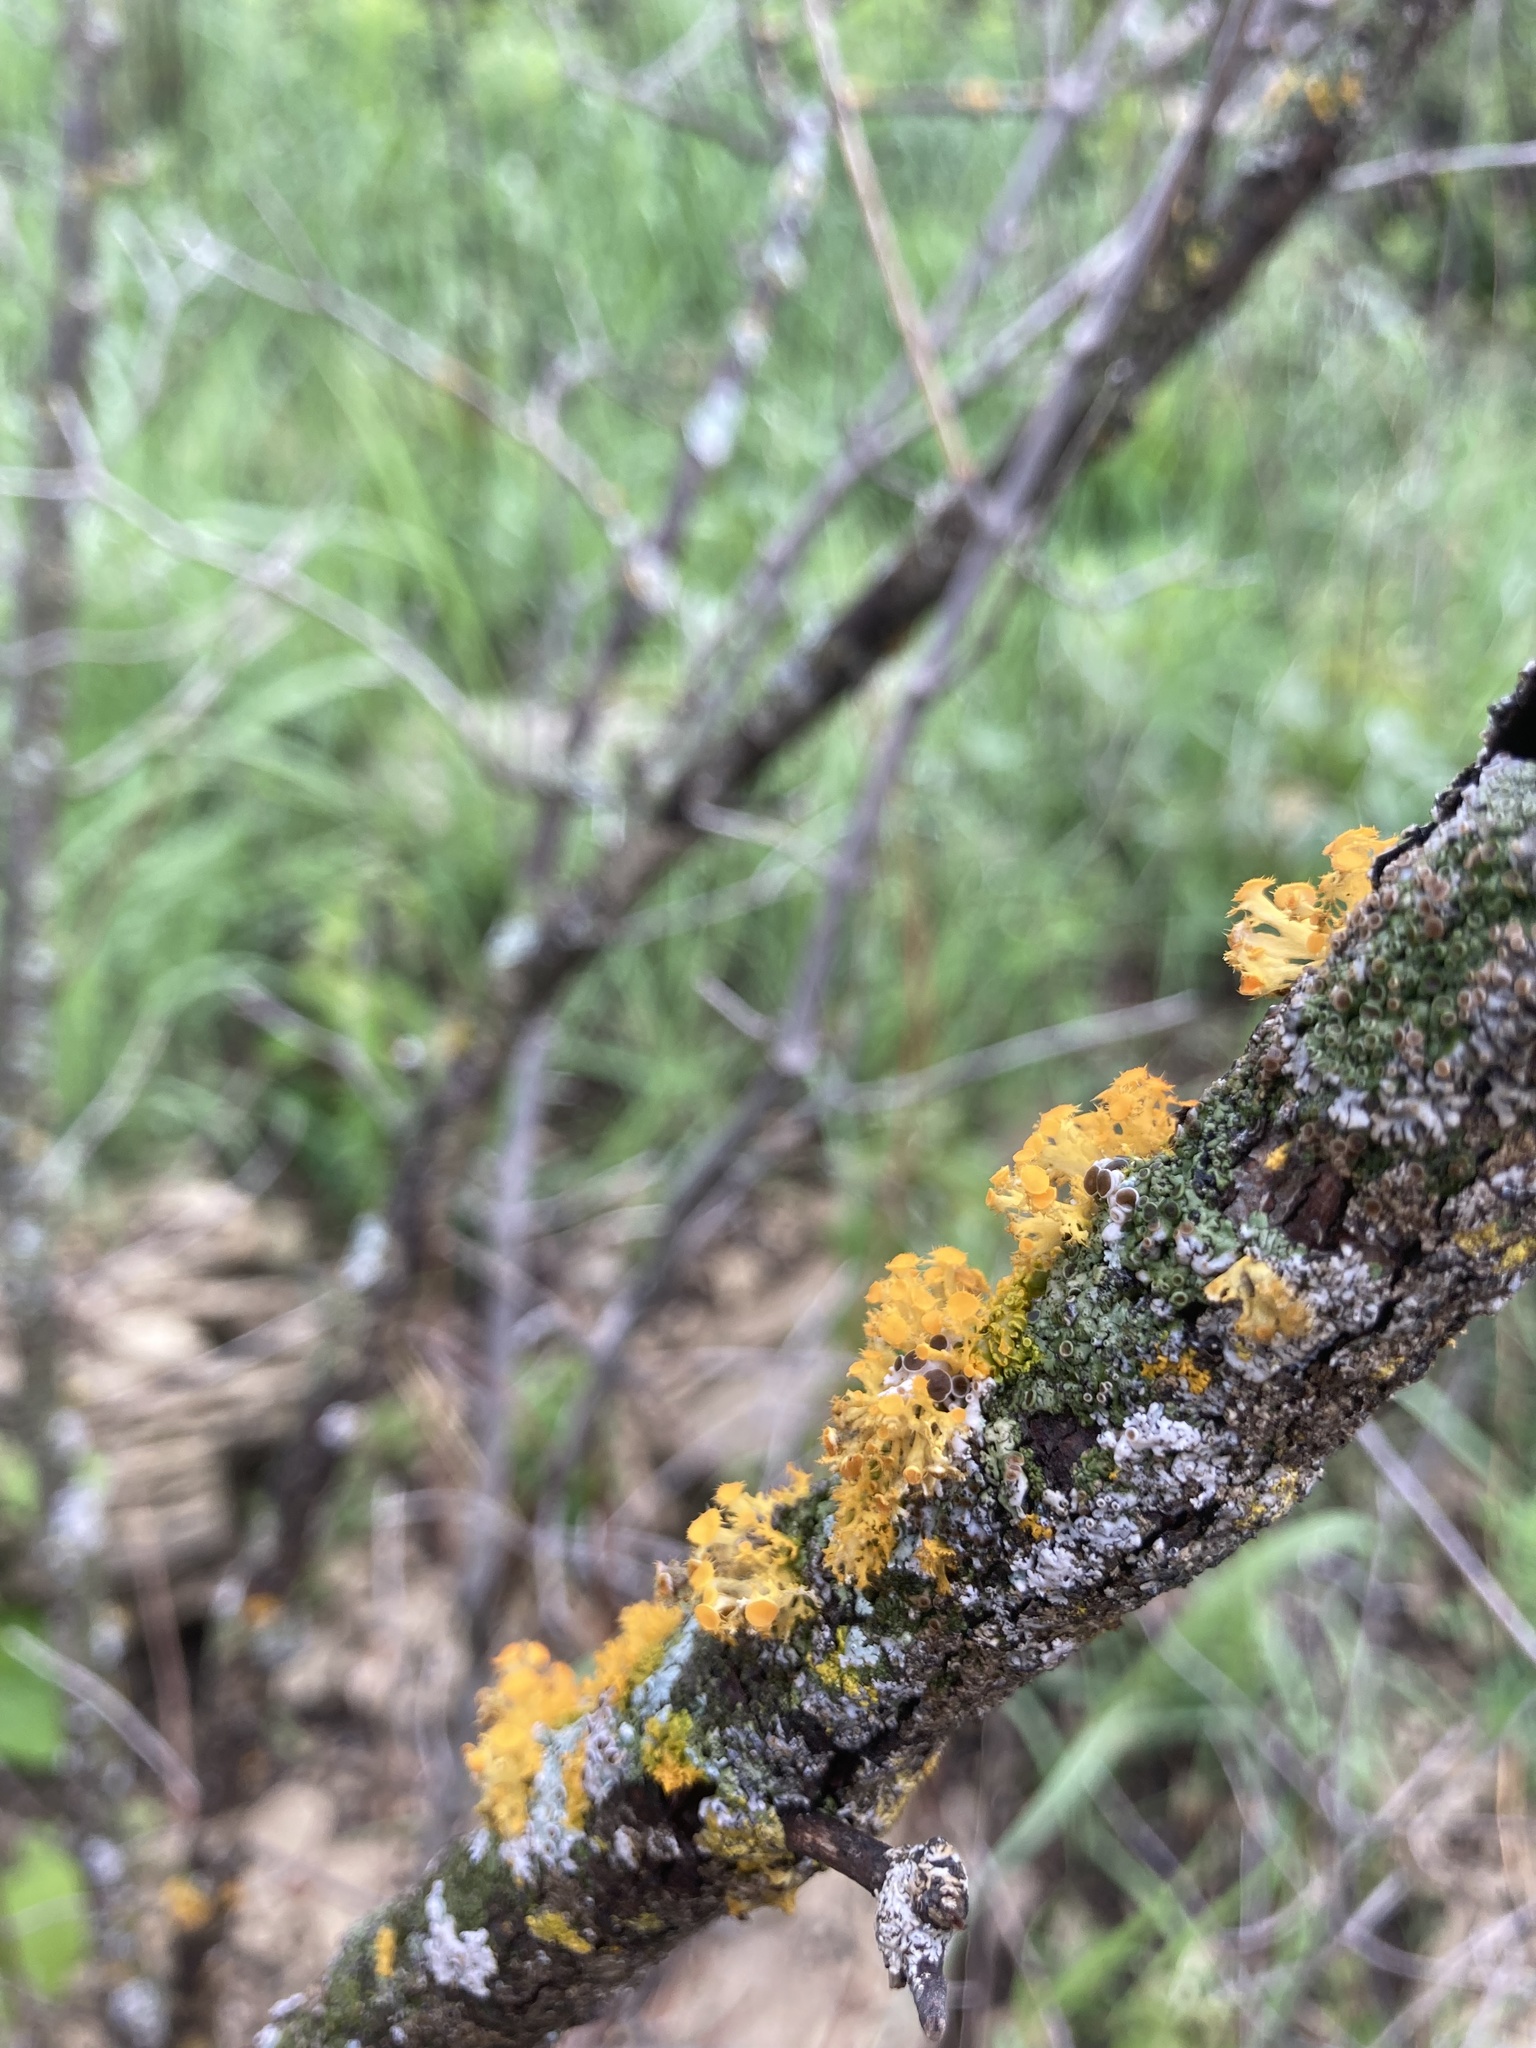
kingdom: Fungi
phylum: Ascomycota
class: Lecanoromycetes
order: Teloschistales
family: Teloschistaceae
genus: Niorma
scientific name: Niorma chrysophthalma
